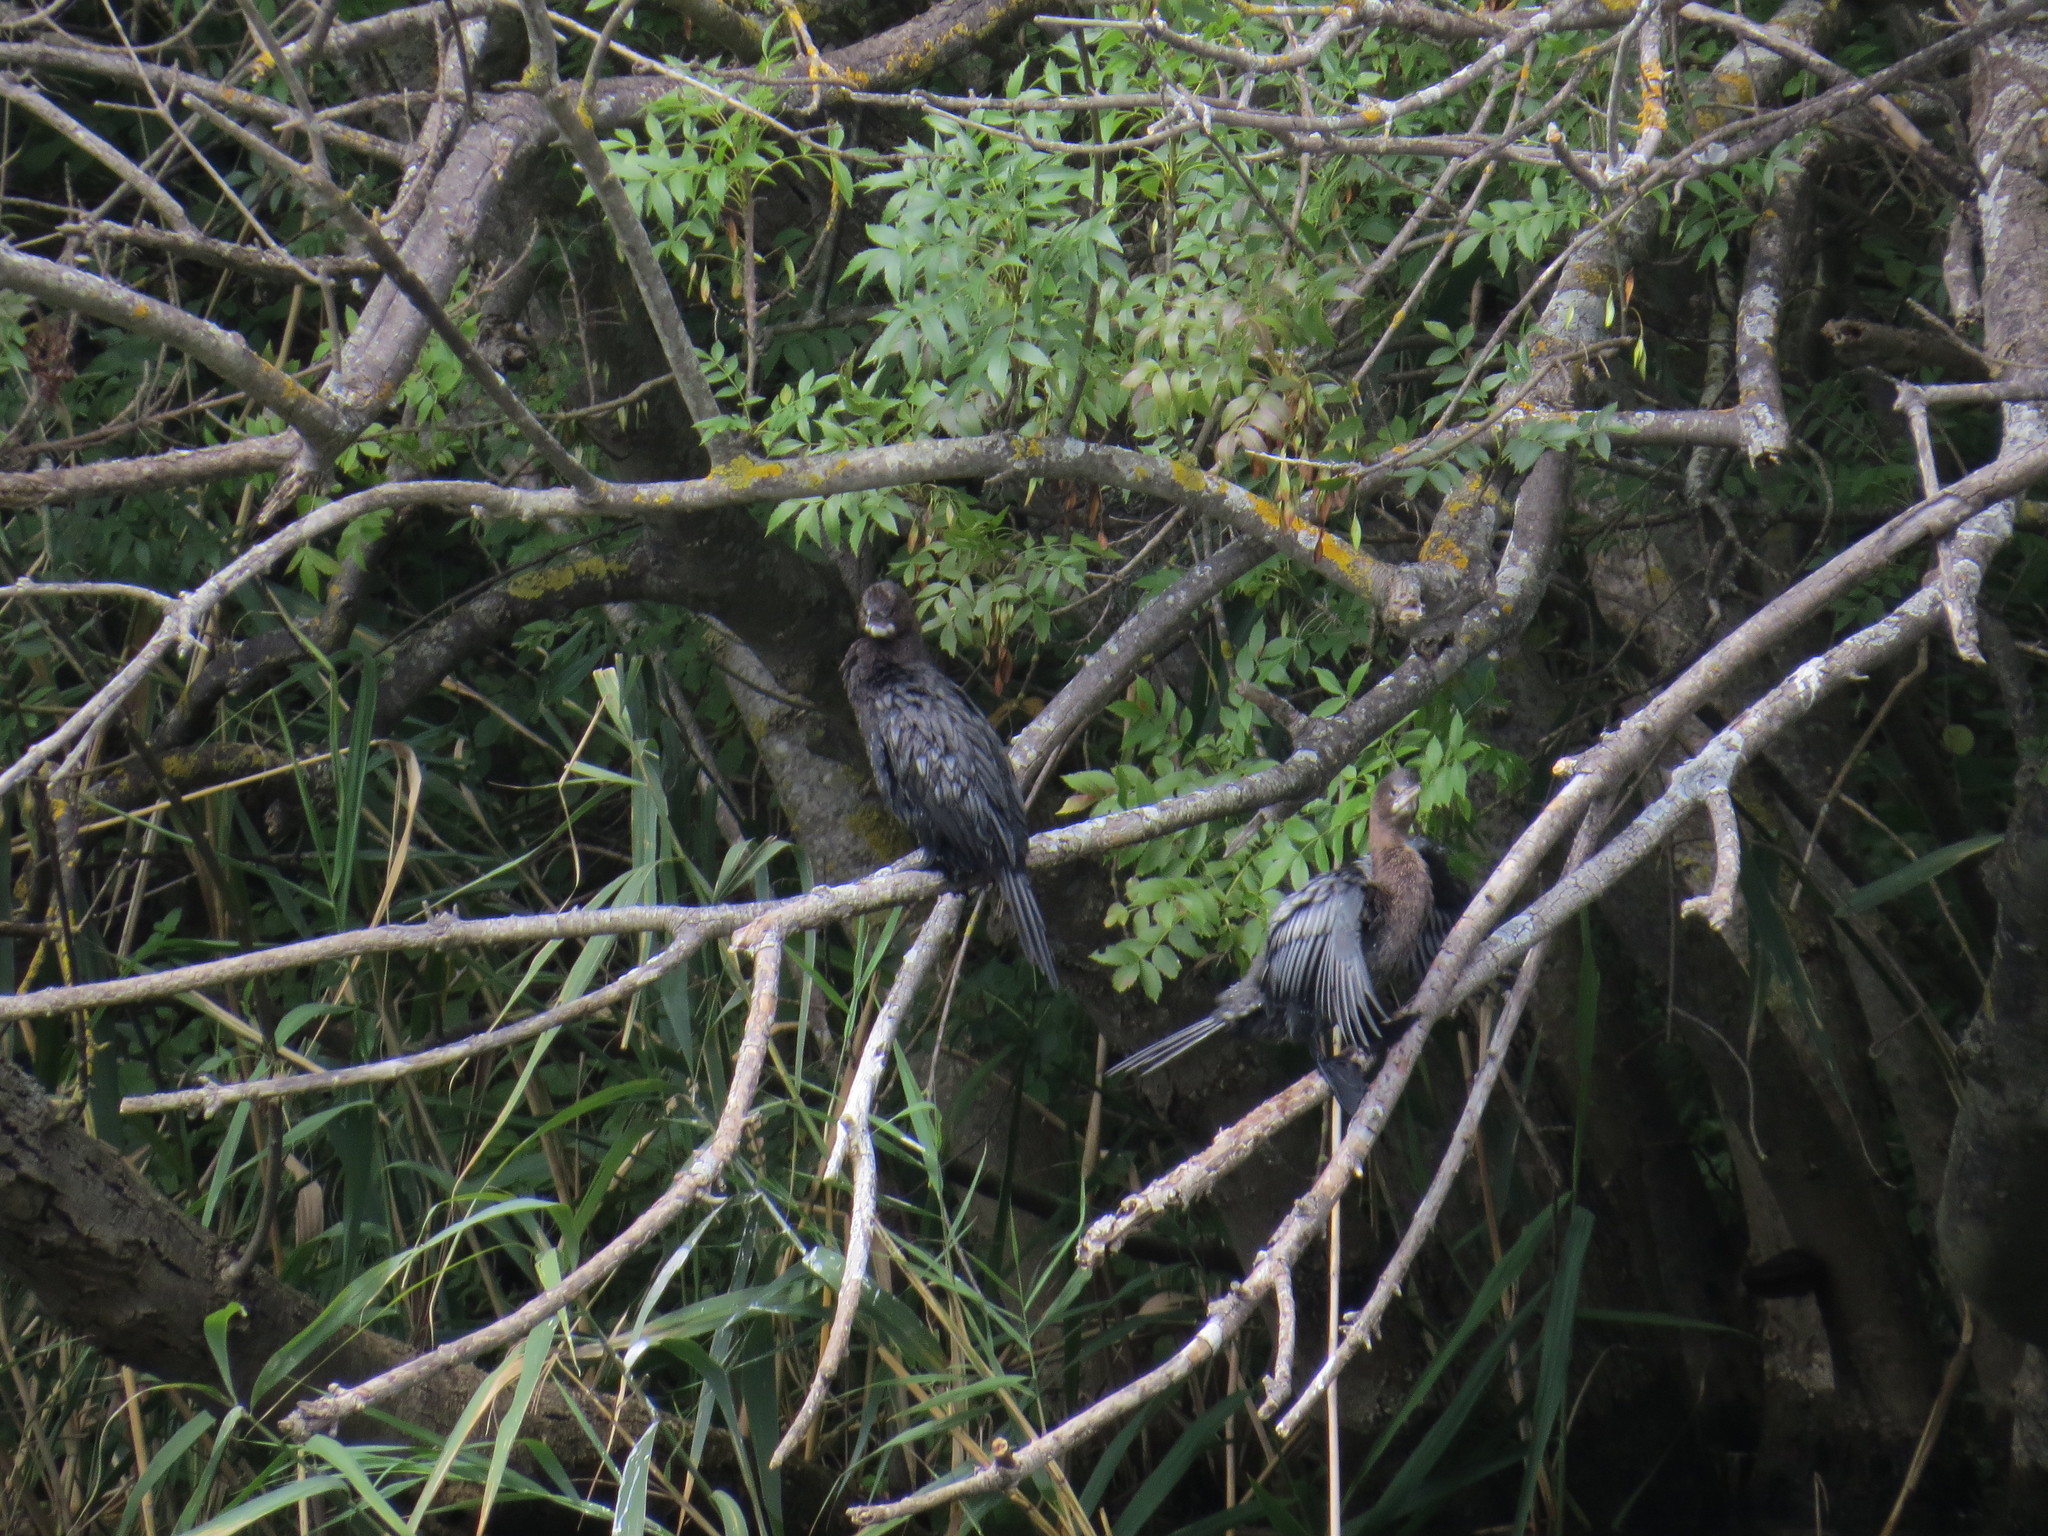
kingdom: Animalia
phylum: Chordata
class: Aves
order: Suliformes
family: Phalacrocoracidae
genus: Microcarbo
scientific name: Microcarbo pygmaeus
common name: Pygmy cormorant
